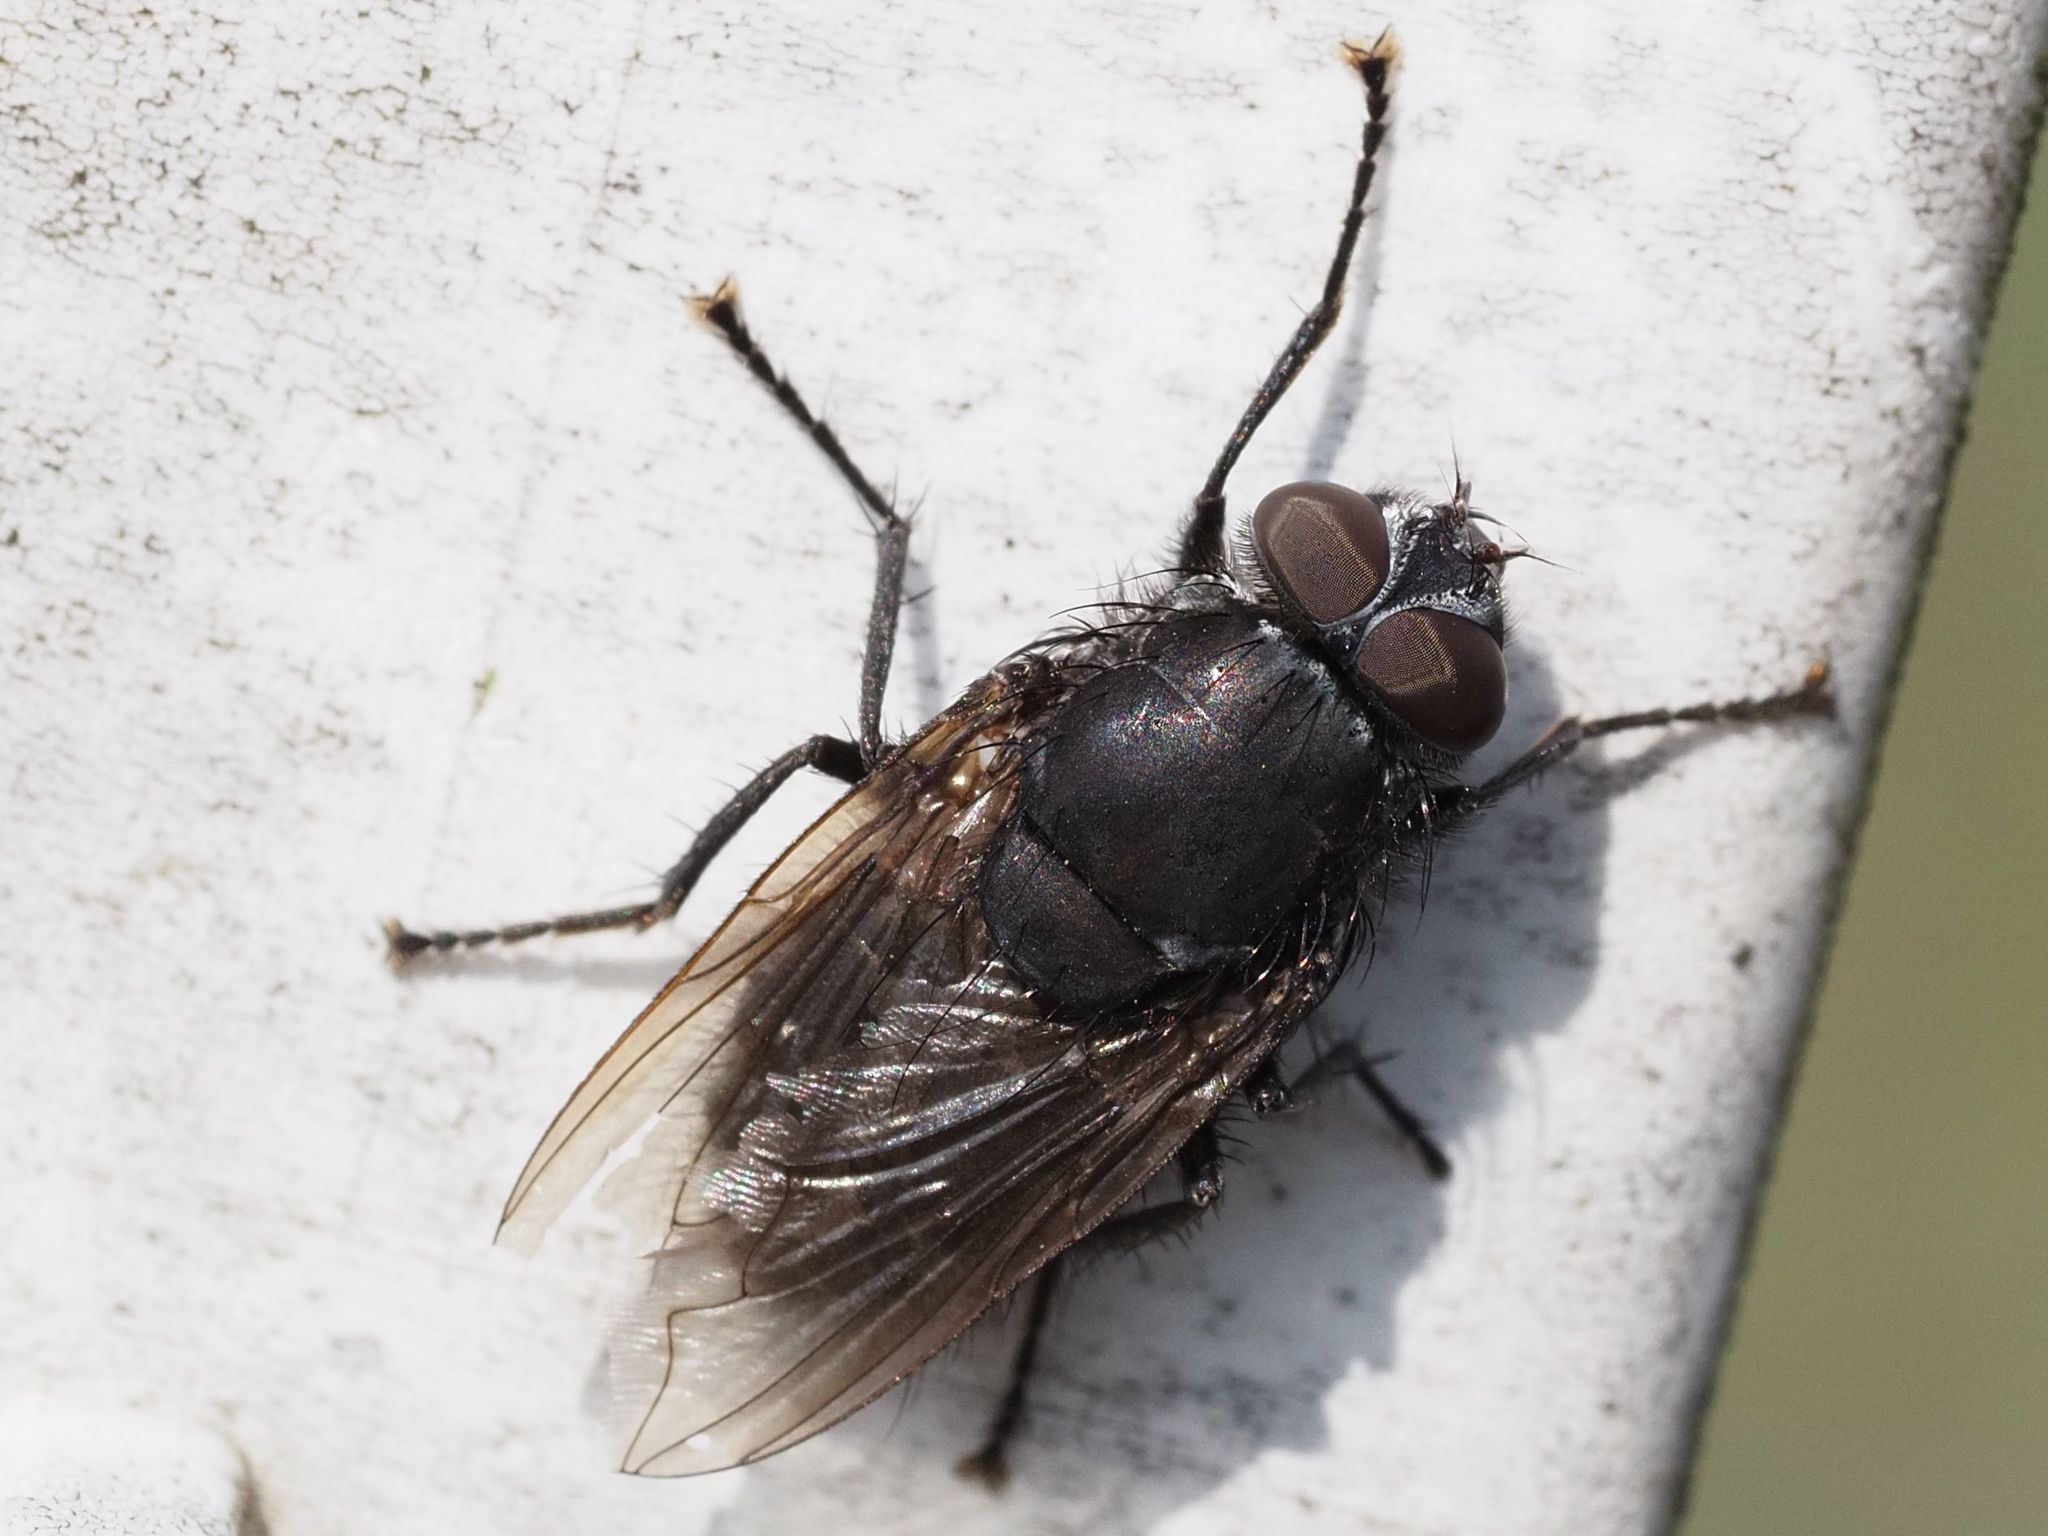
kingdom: Animalia
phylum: Arthropoda
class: Insecta
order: Diptera
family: Polleniidae
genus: Pollenia
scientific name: Pollenia vagabunda
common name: Vagabund cluster fly
